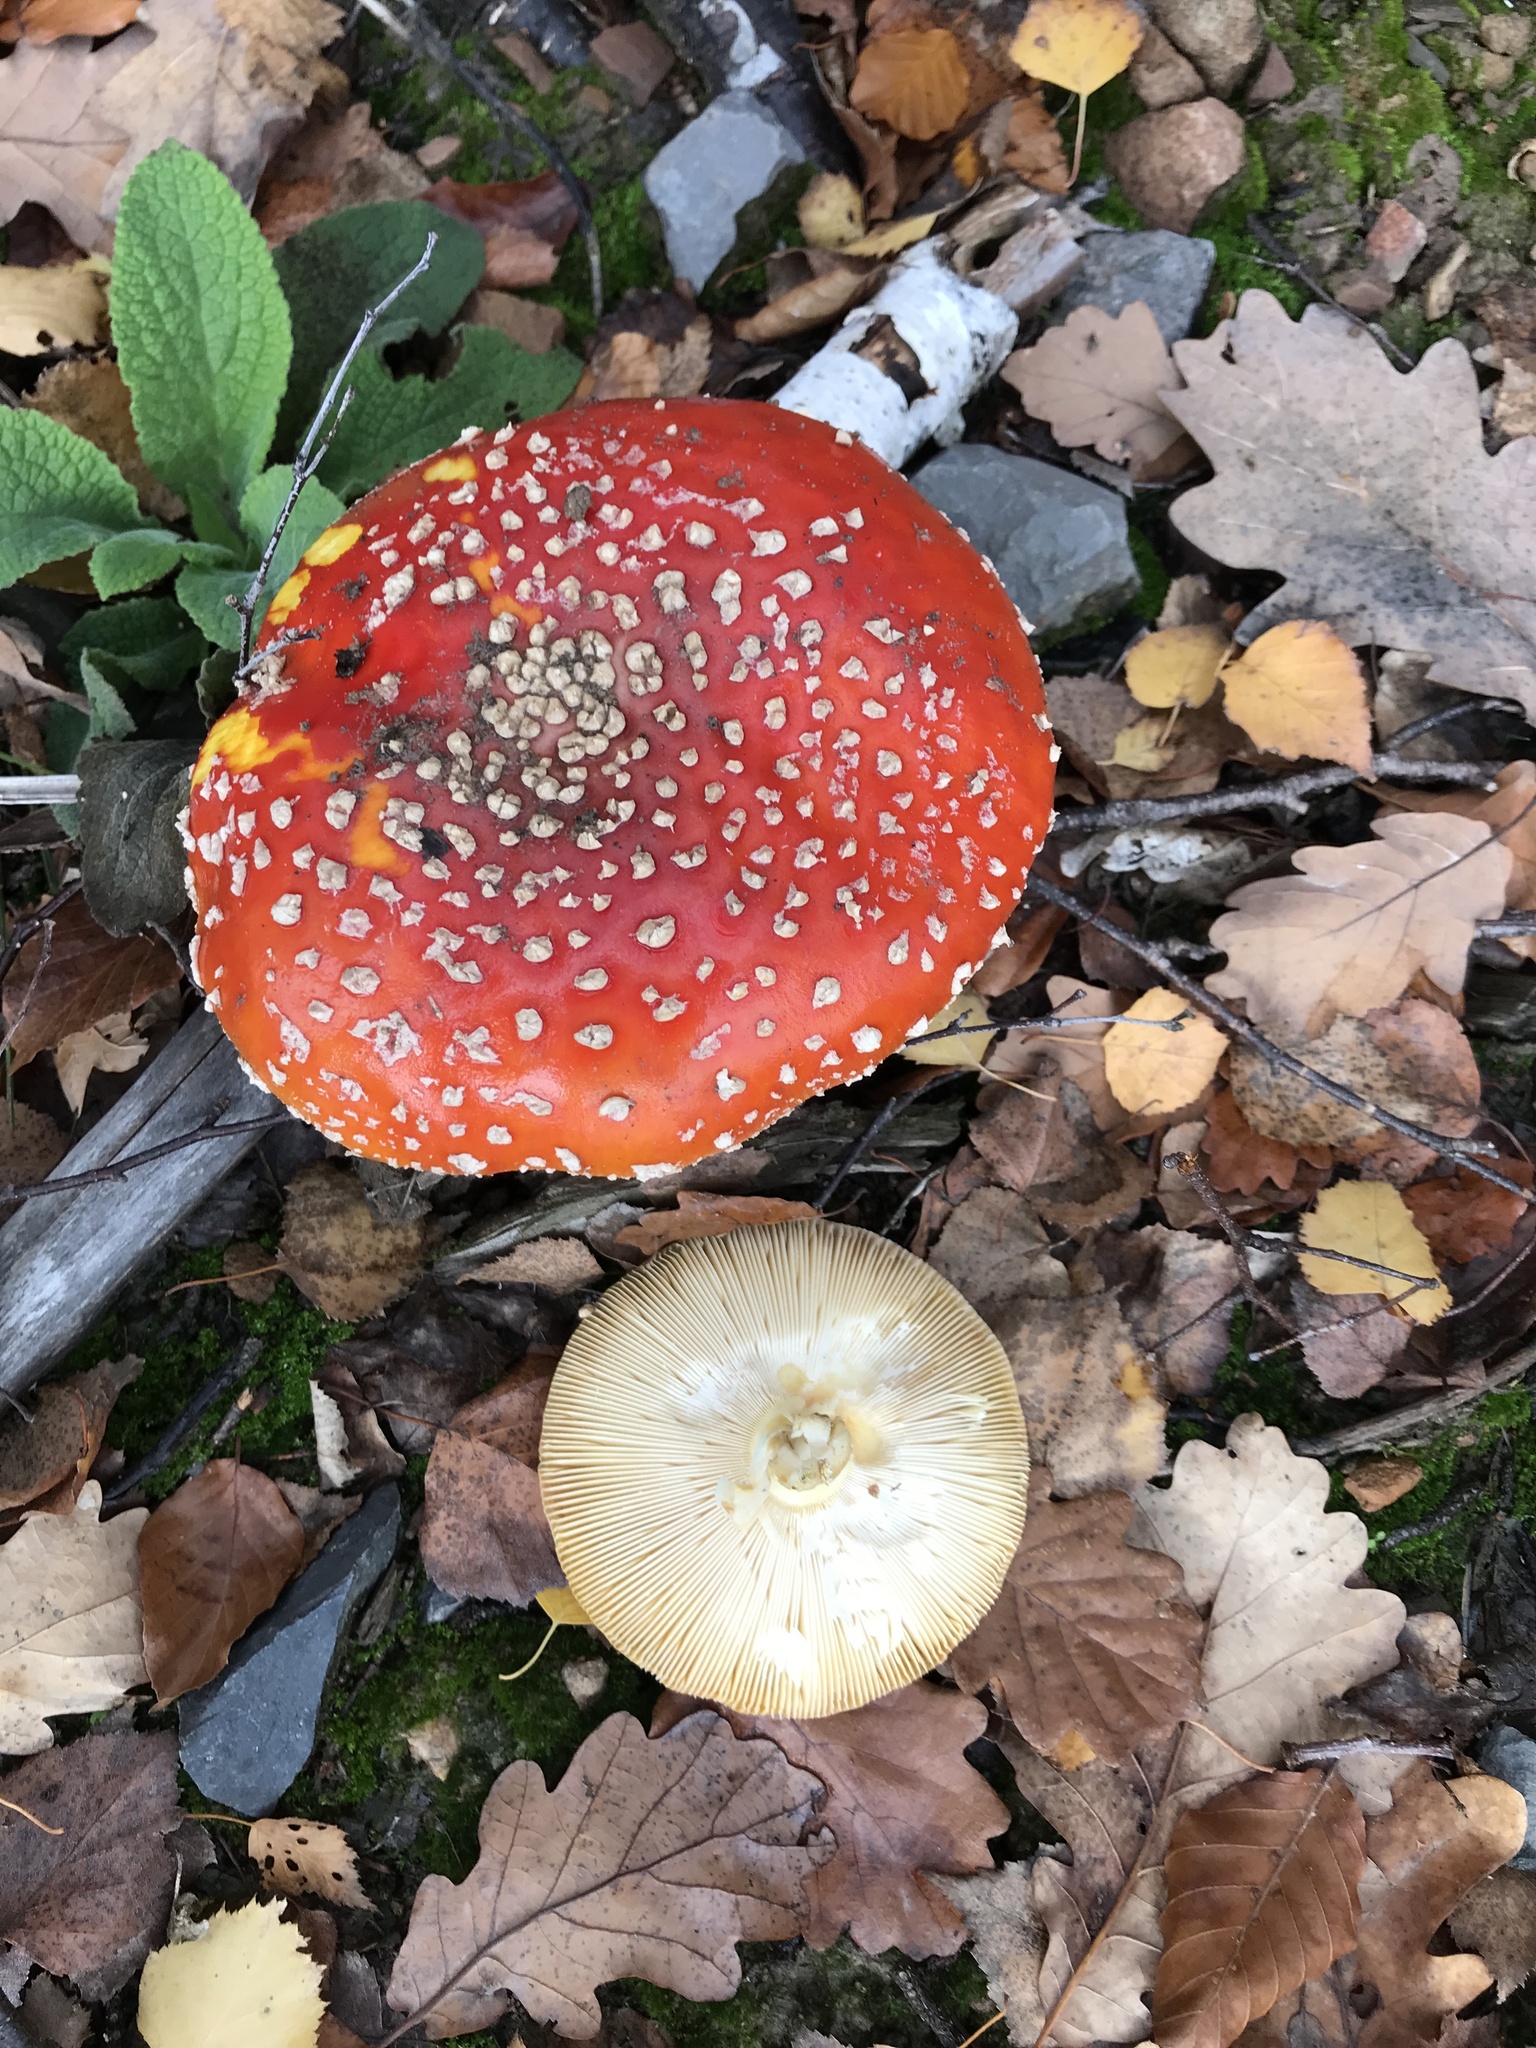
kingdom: Fungi
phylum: Basidiomycota
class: Agaricomycetes
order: Agaricales
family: Amanitaceae
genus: Amanita
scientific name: Amanita muscaria
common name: Fly agaric
